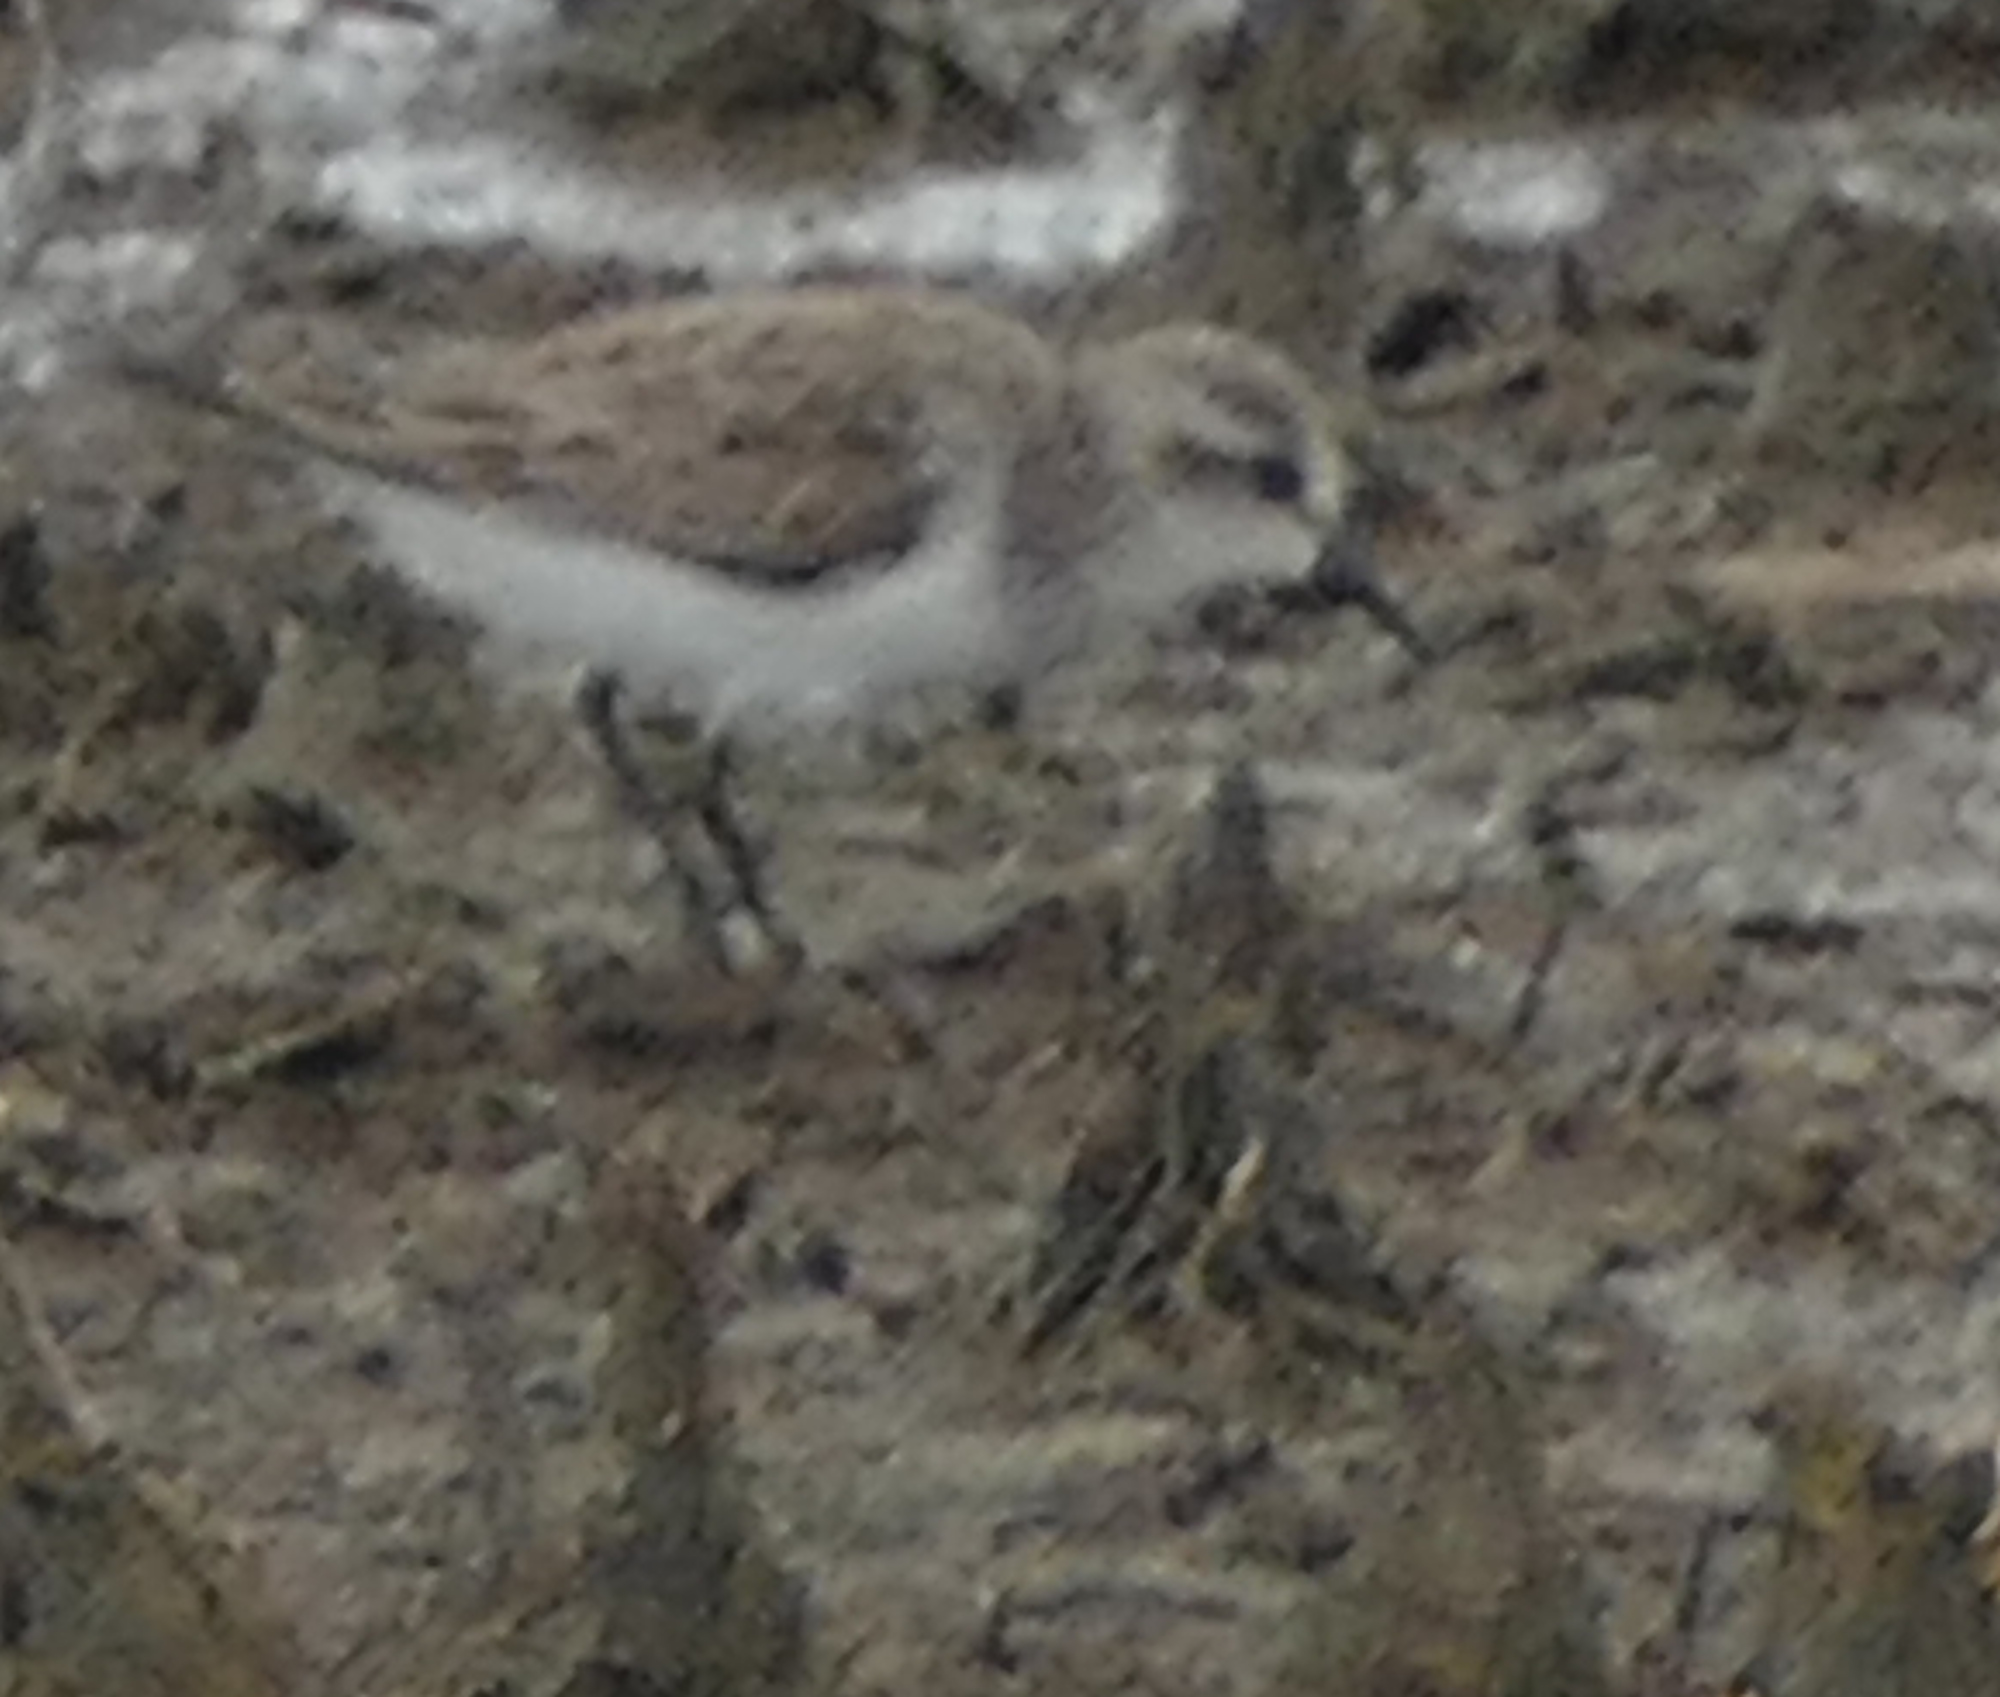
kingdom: Animalia
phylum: Chordata
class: Aves
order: Charadriiformes
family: Scolopacidae
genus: Calidris
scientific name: Calidris pusilla
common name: Semipalmated sandpiper
